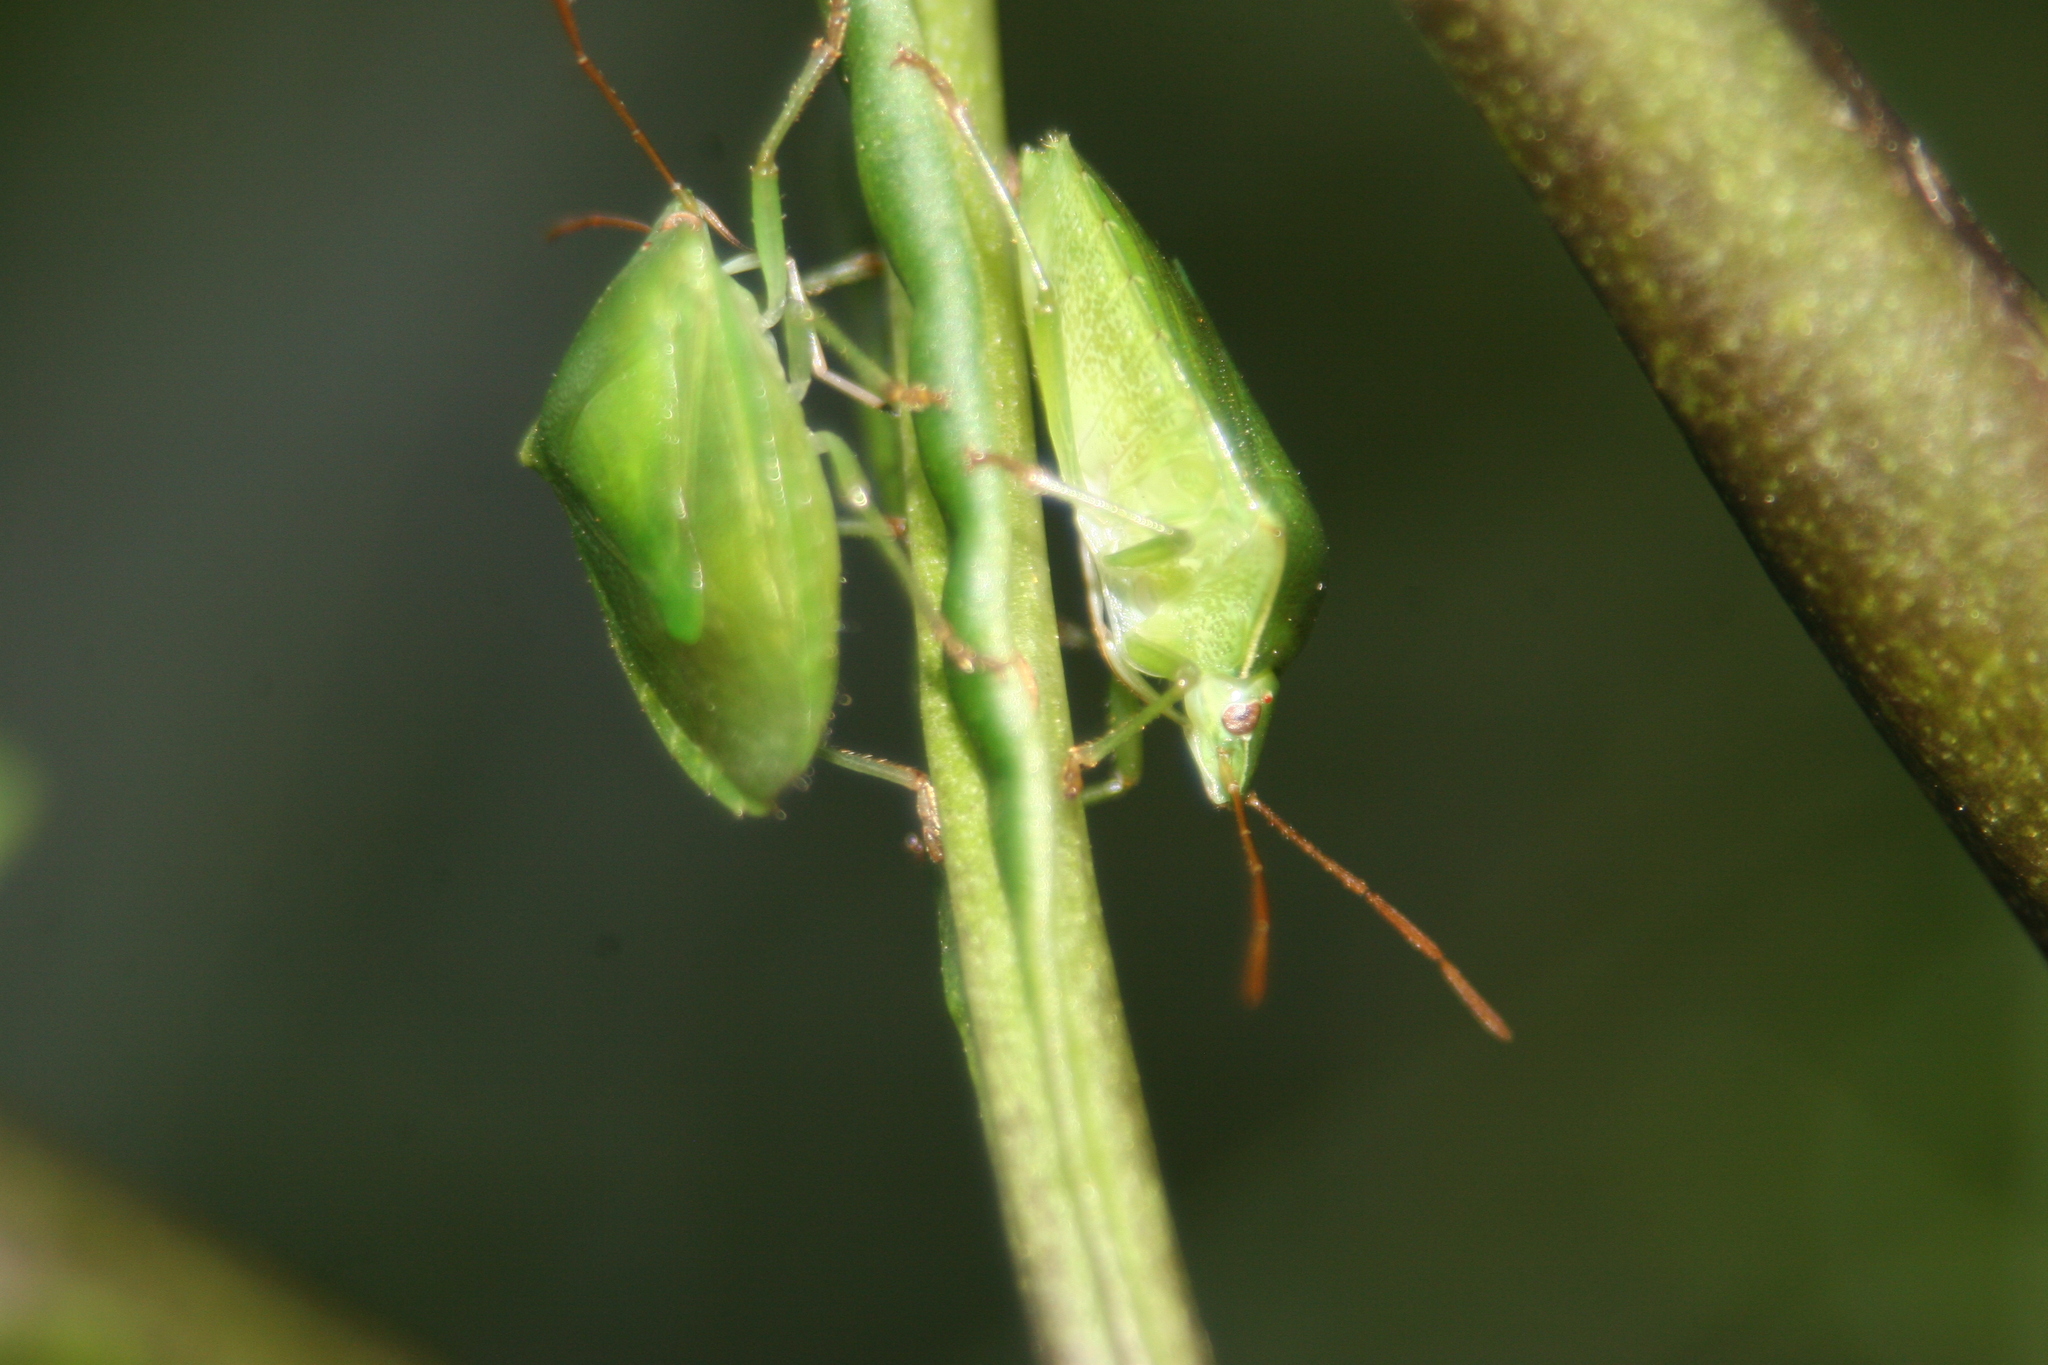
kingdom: Animalia
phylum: Arthropoda
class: Insecta
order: Hemiptera
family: Pentatomidae
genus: Cuspicona
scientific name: Cuspicona simplex
